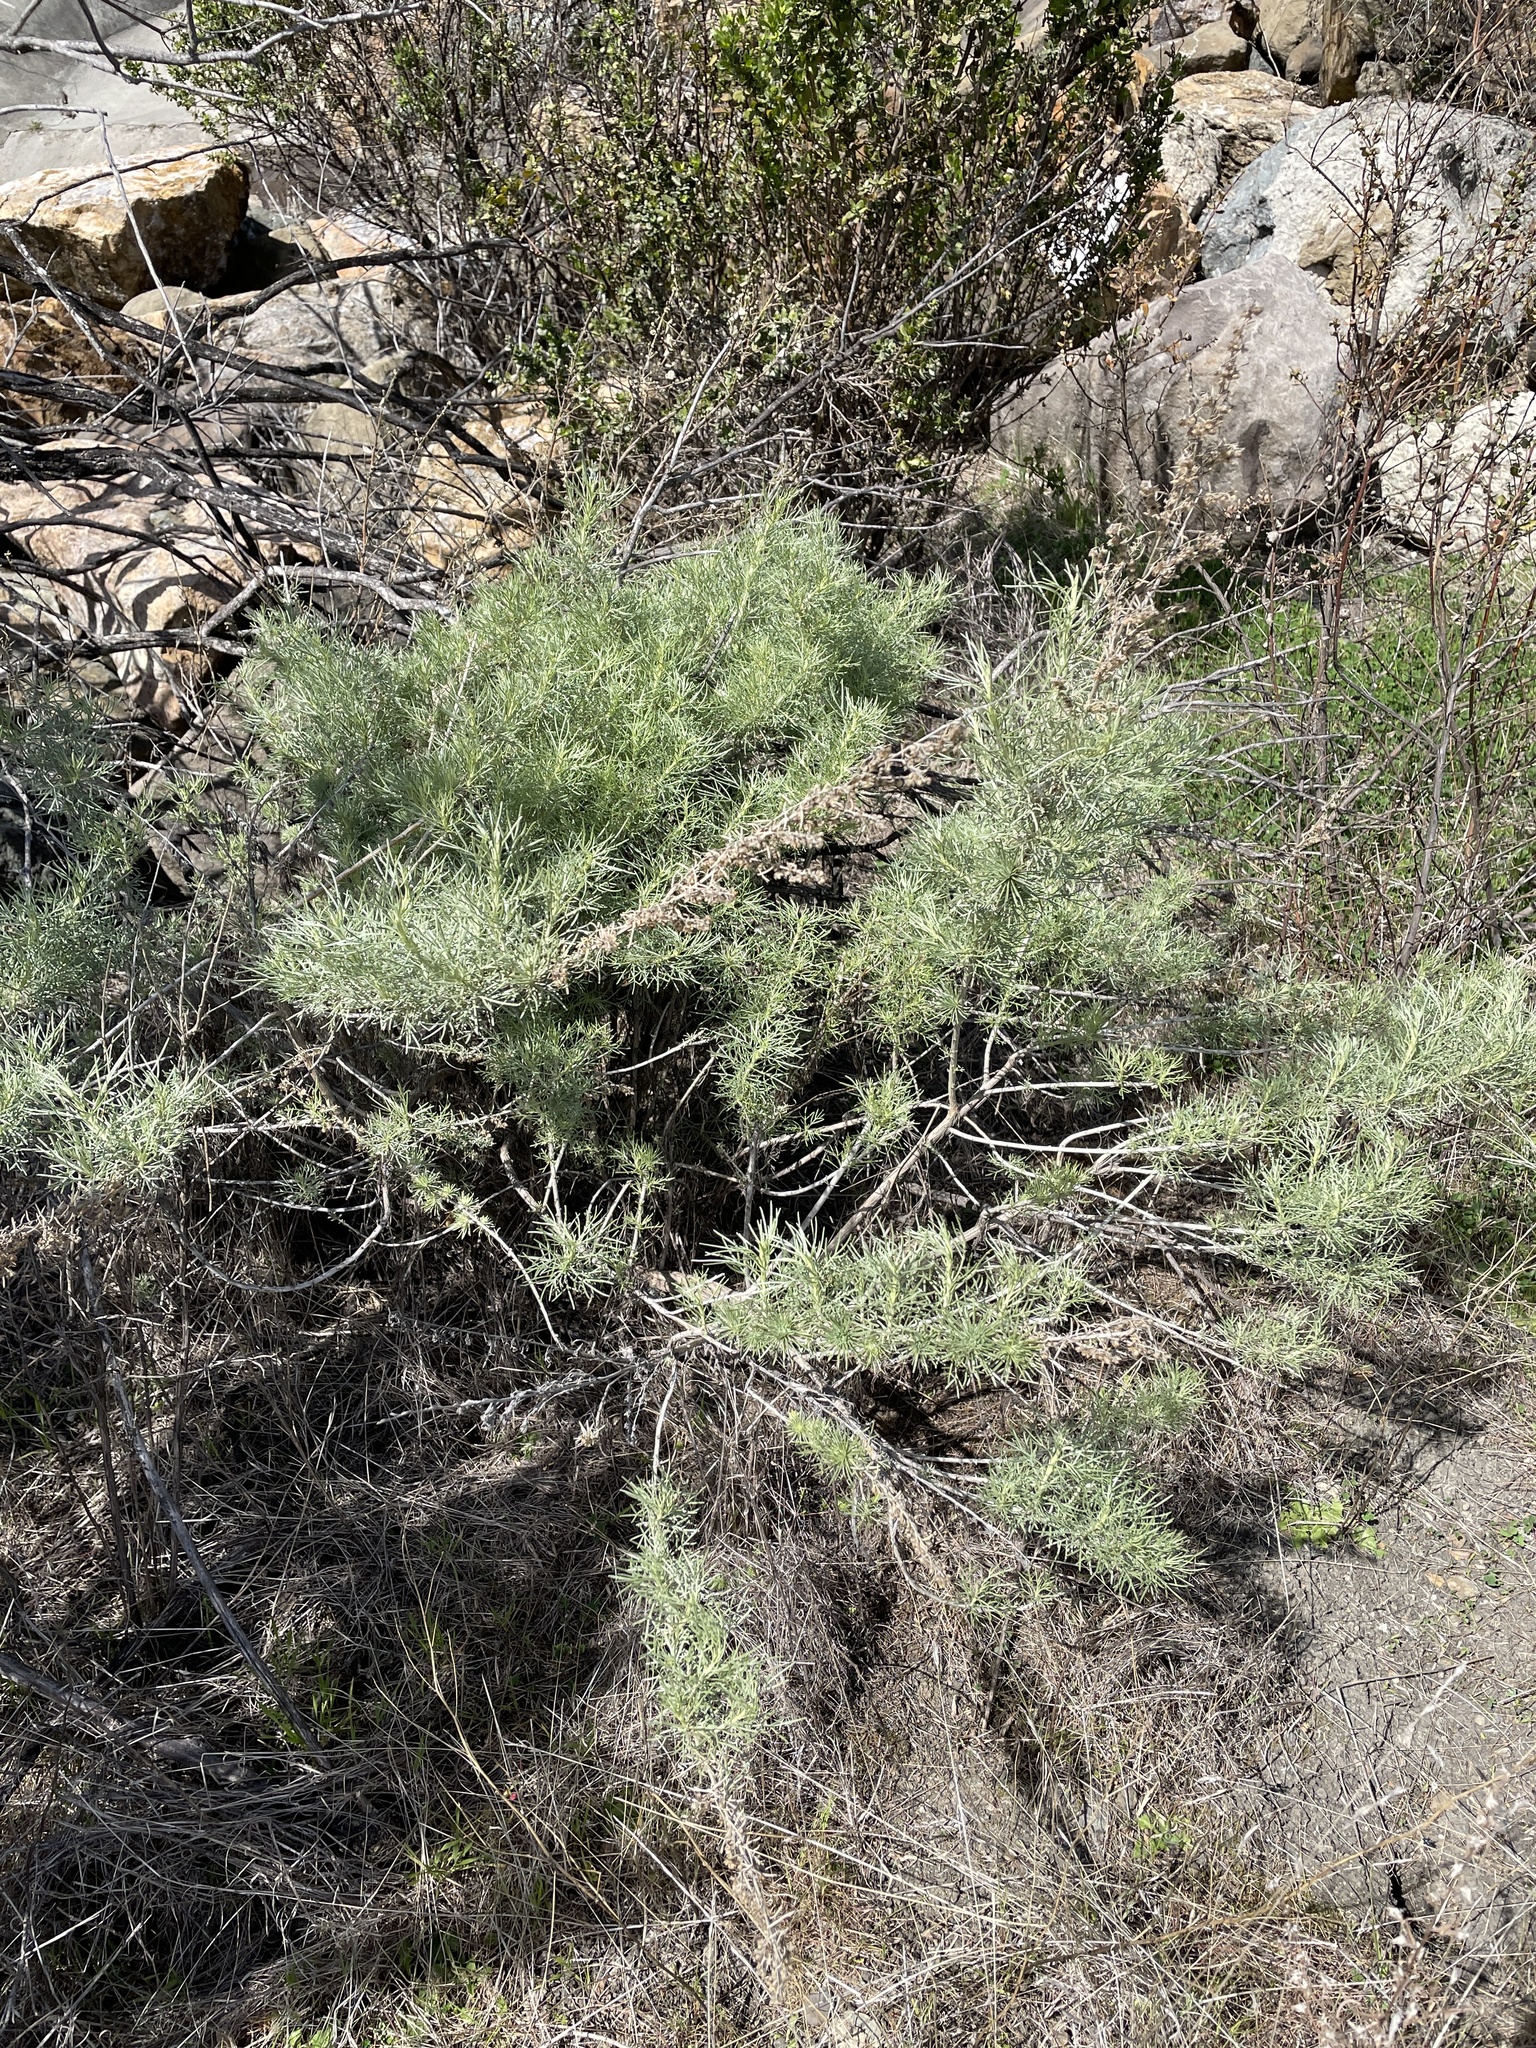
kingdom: Plantae
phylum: Tracheophyta
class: Magnoliopsida
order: Asterales
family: Asteraceae
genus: Artemisia
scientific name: Artemisia californica
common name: California sagebrush
